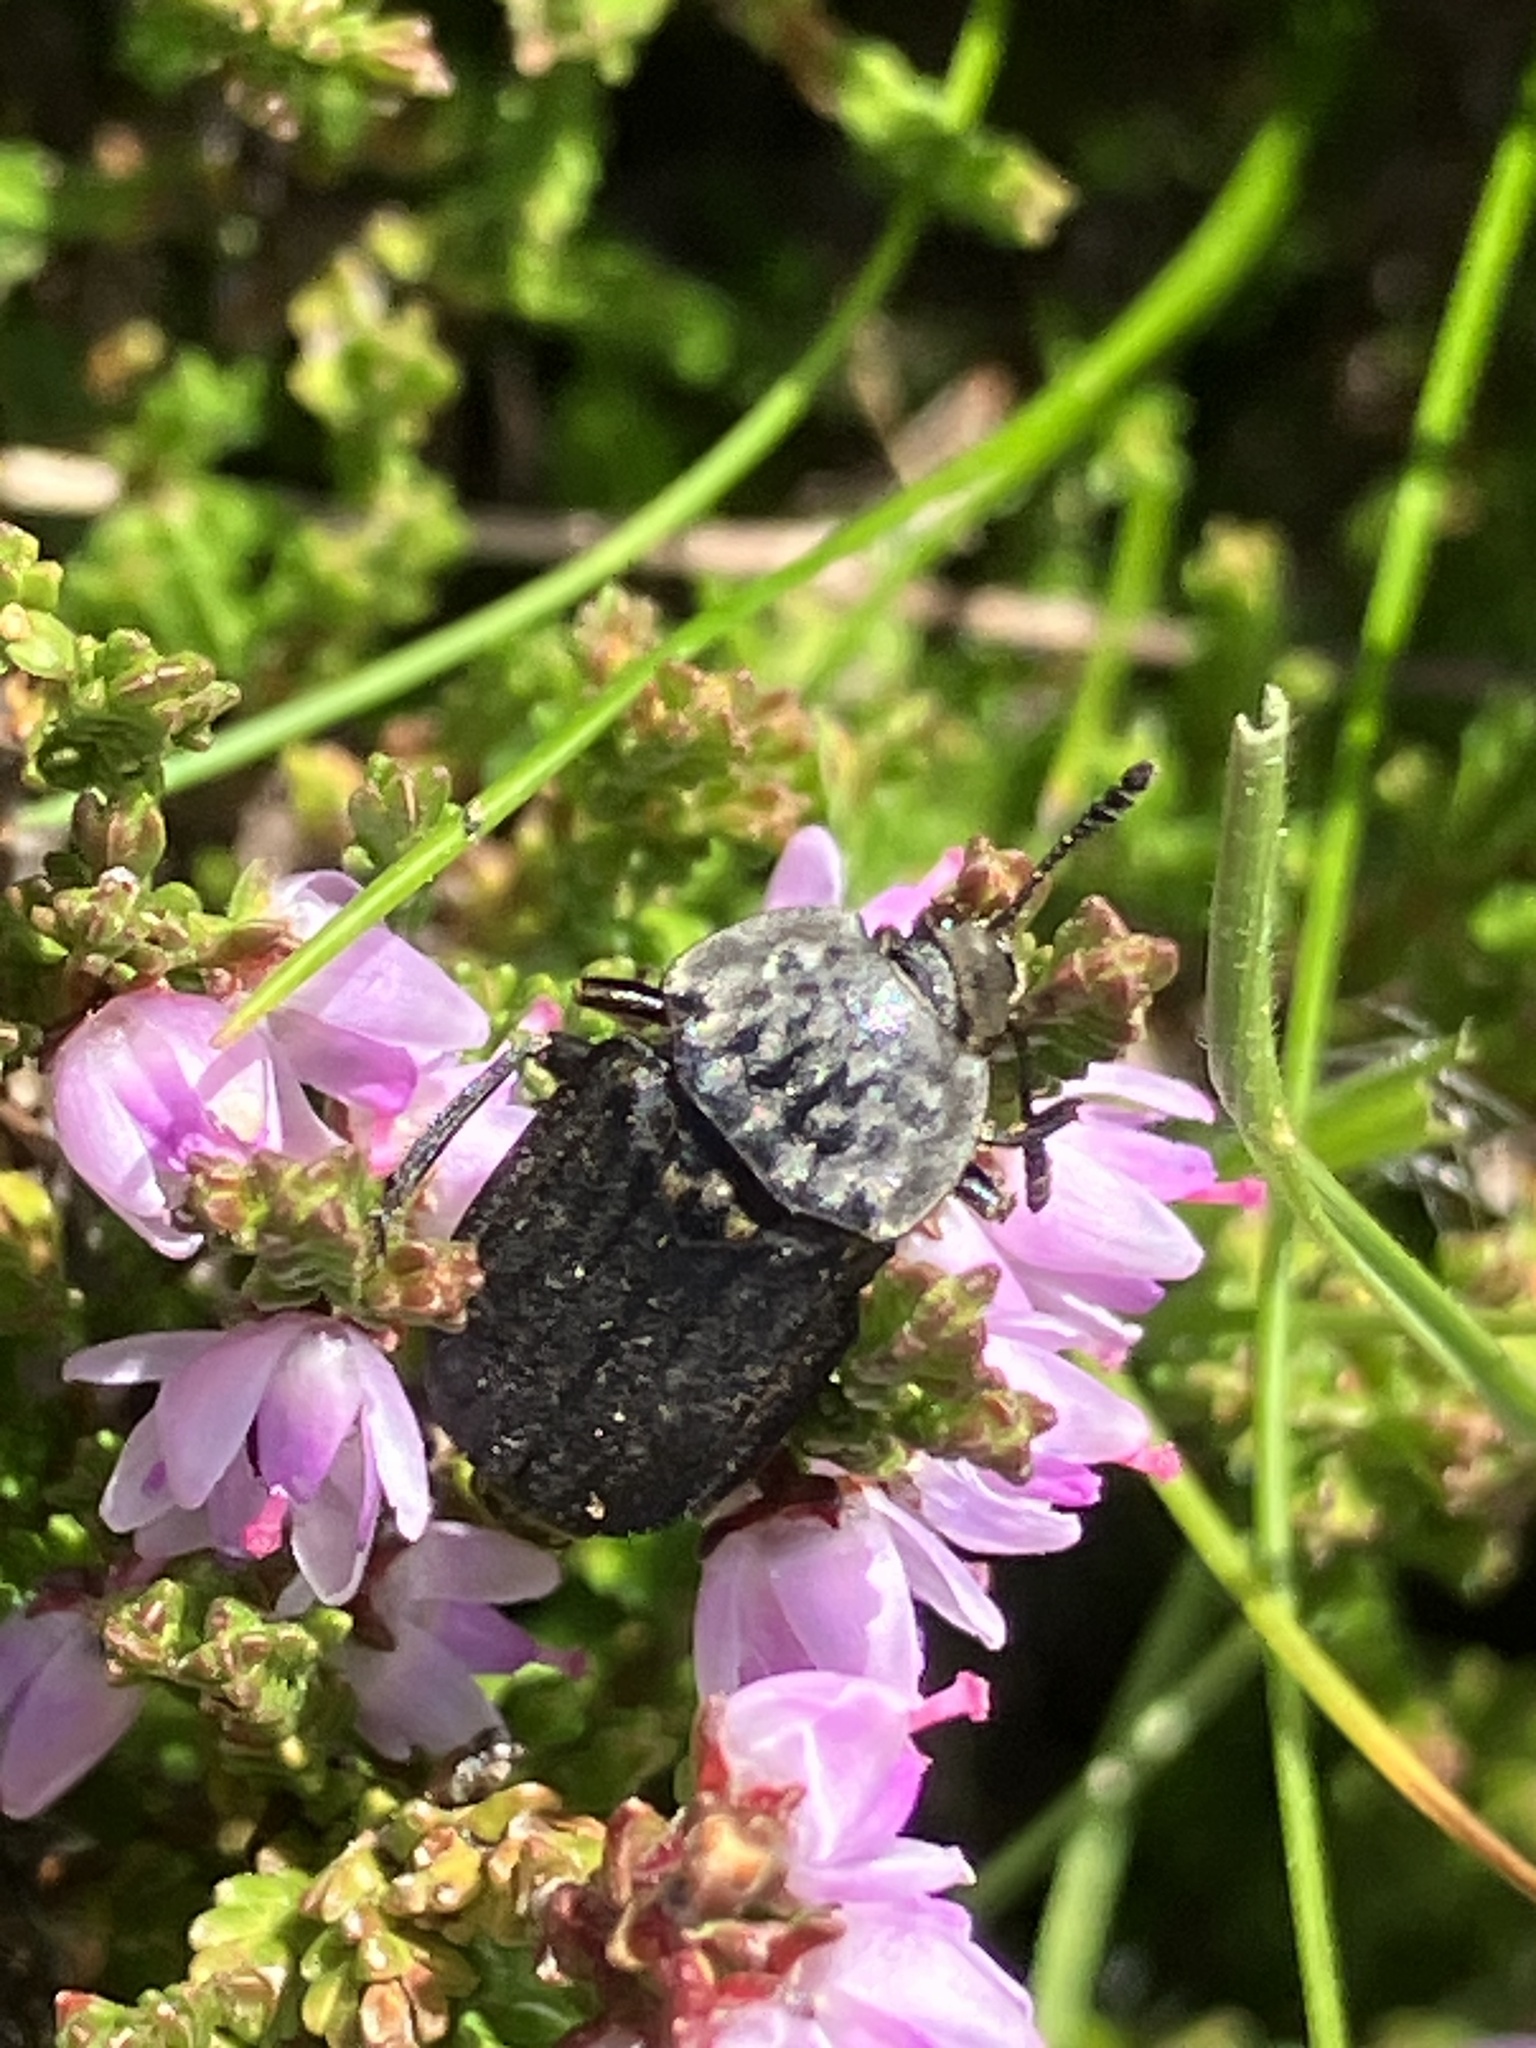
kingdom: Animalia
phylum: Arthropoda
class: Insecta
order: Coleoptera
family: Staphylinidae
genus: Thanatophilus
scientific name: Thanatophilus sinuatus
